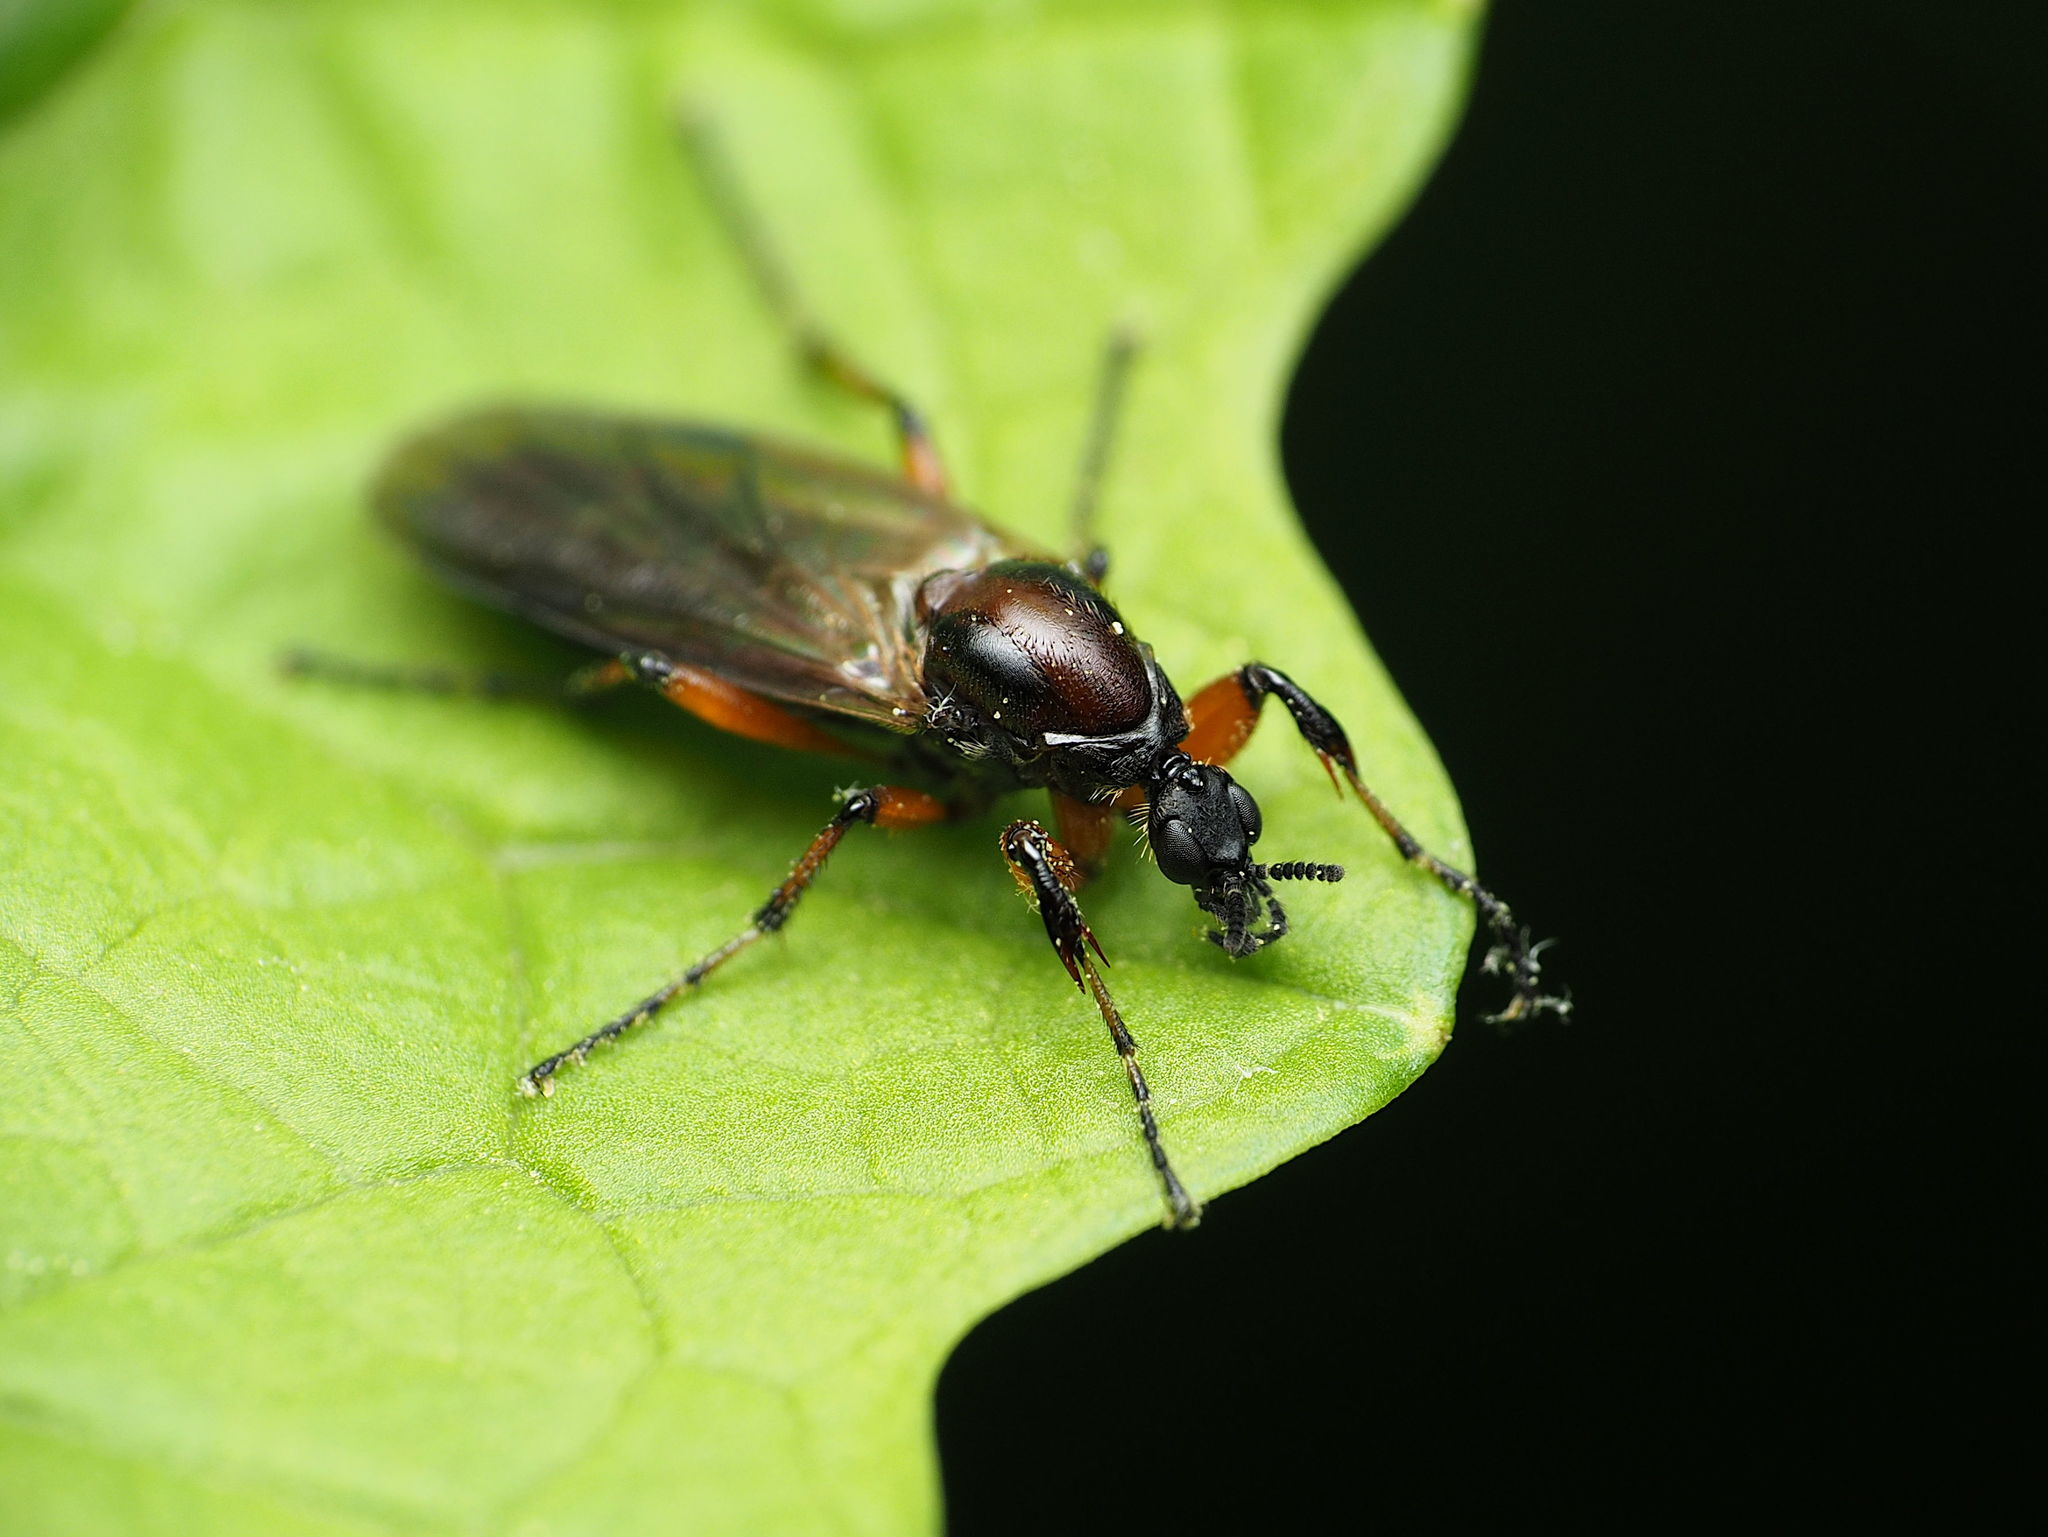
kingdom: Animalia
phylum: Arthropoda
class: Insecta
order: Diptera
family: Bibionidae
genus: Bibio
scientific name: Bibio articulatus
